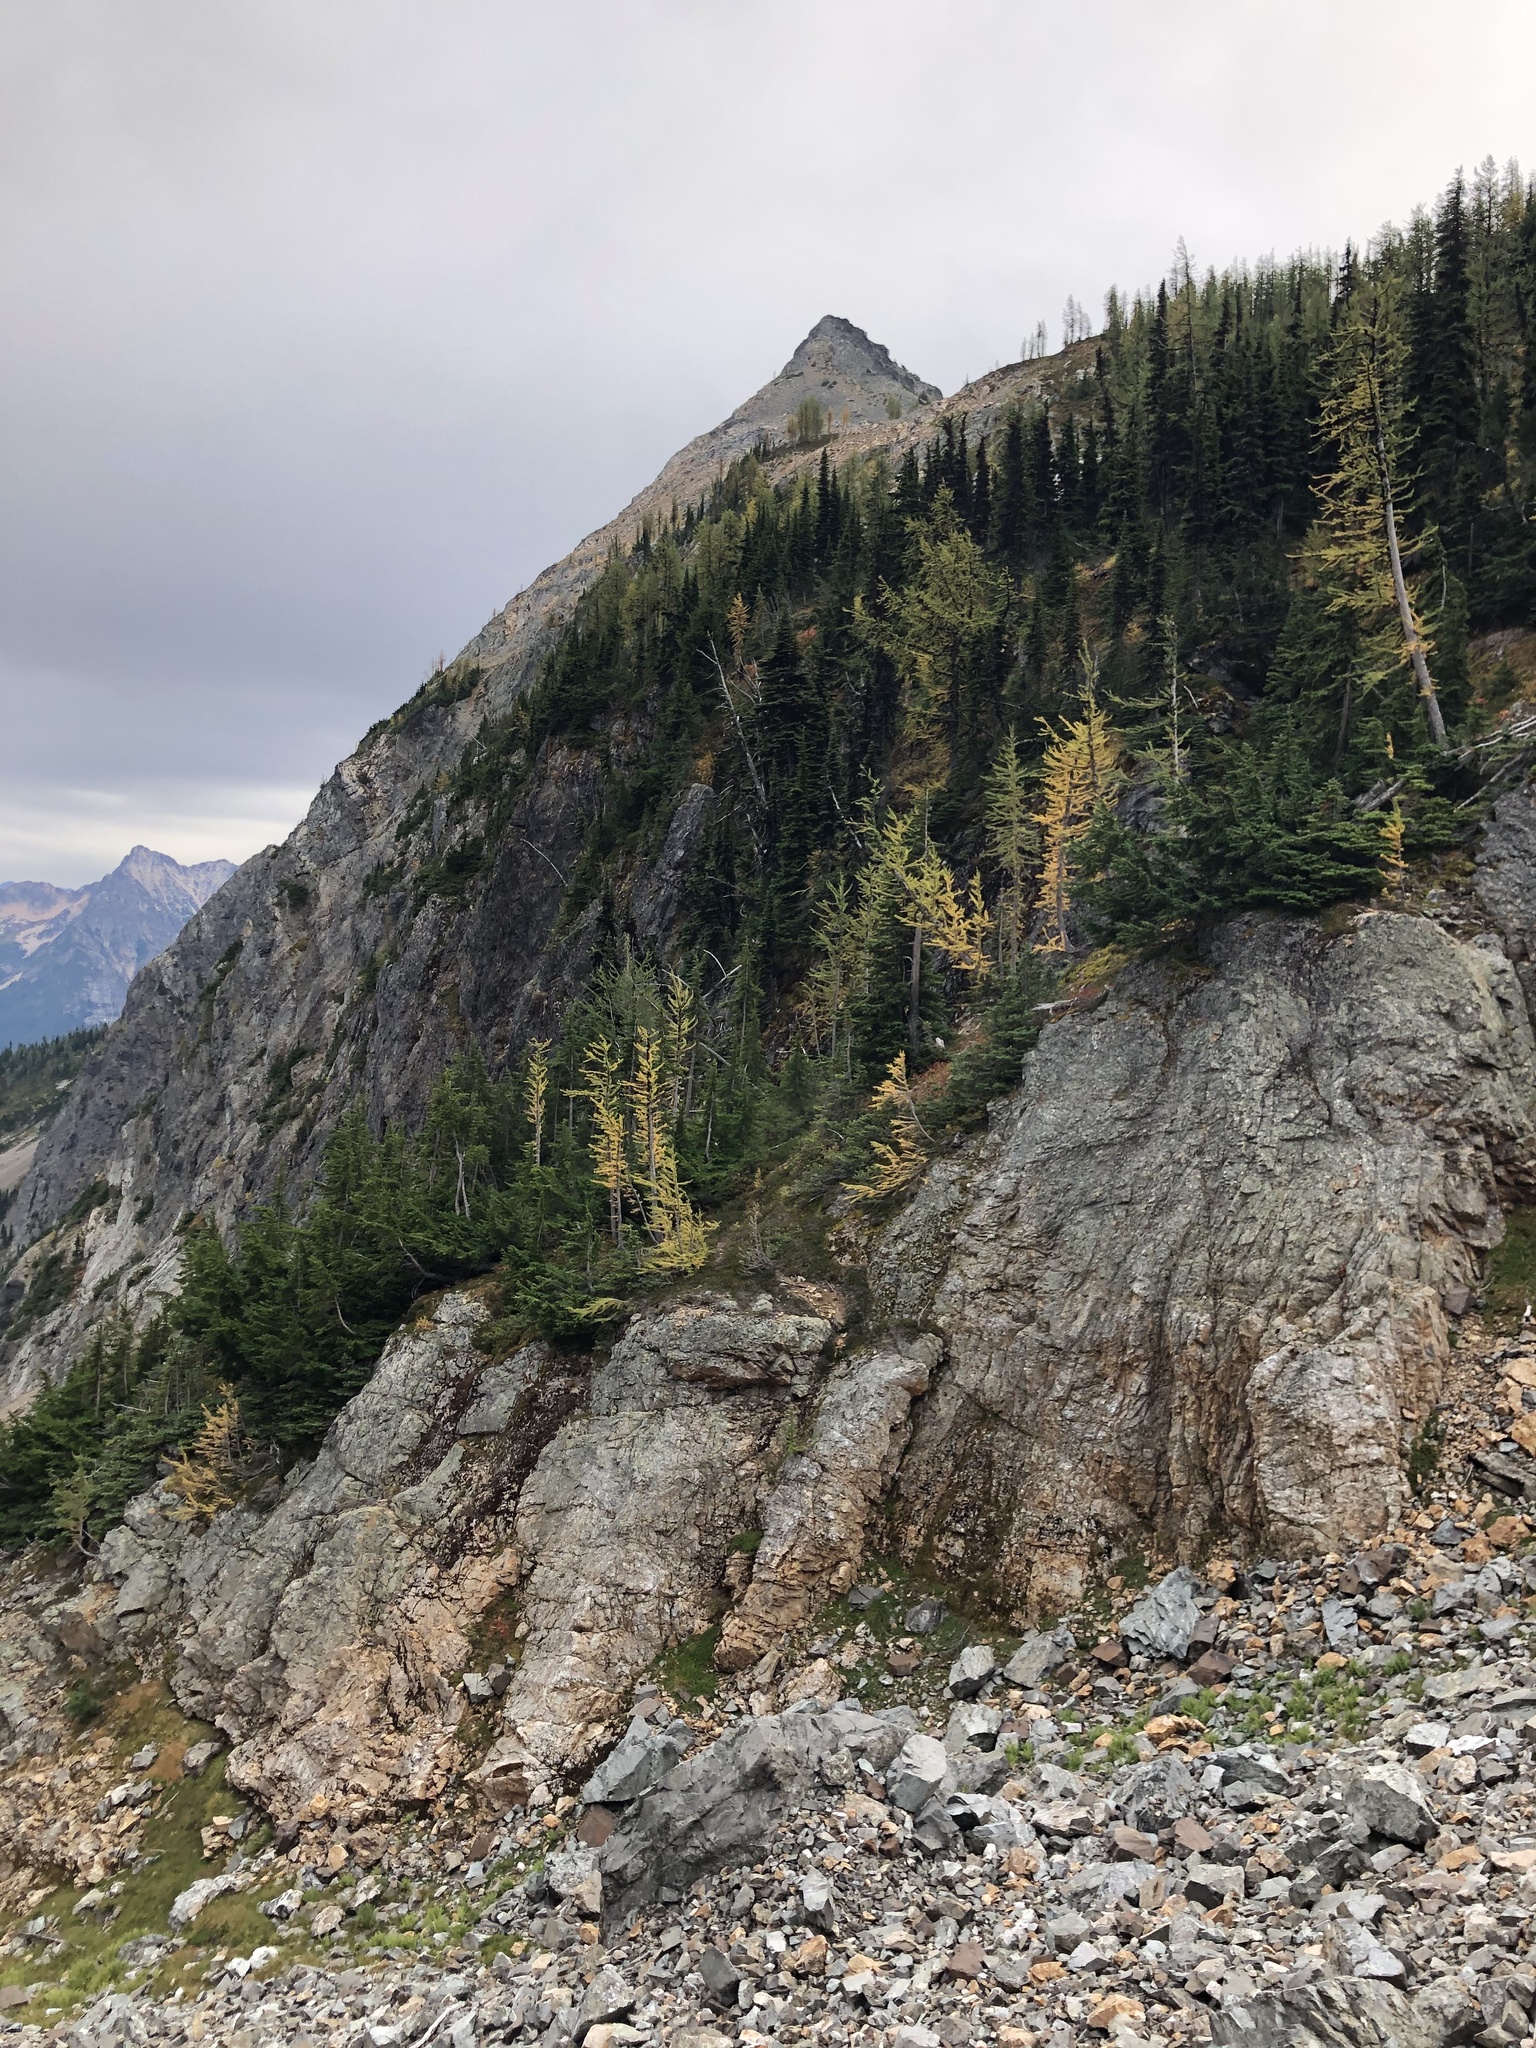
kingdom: Plantae
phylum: Tracheophyta
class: Pinopsida
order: Pinales
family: Pinaceae
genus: Larix
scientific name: Larix lyallii
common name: Alpine larch
